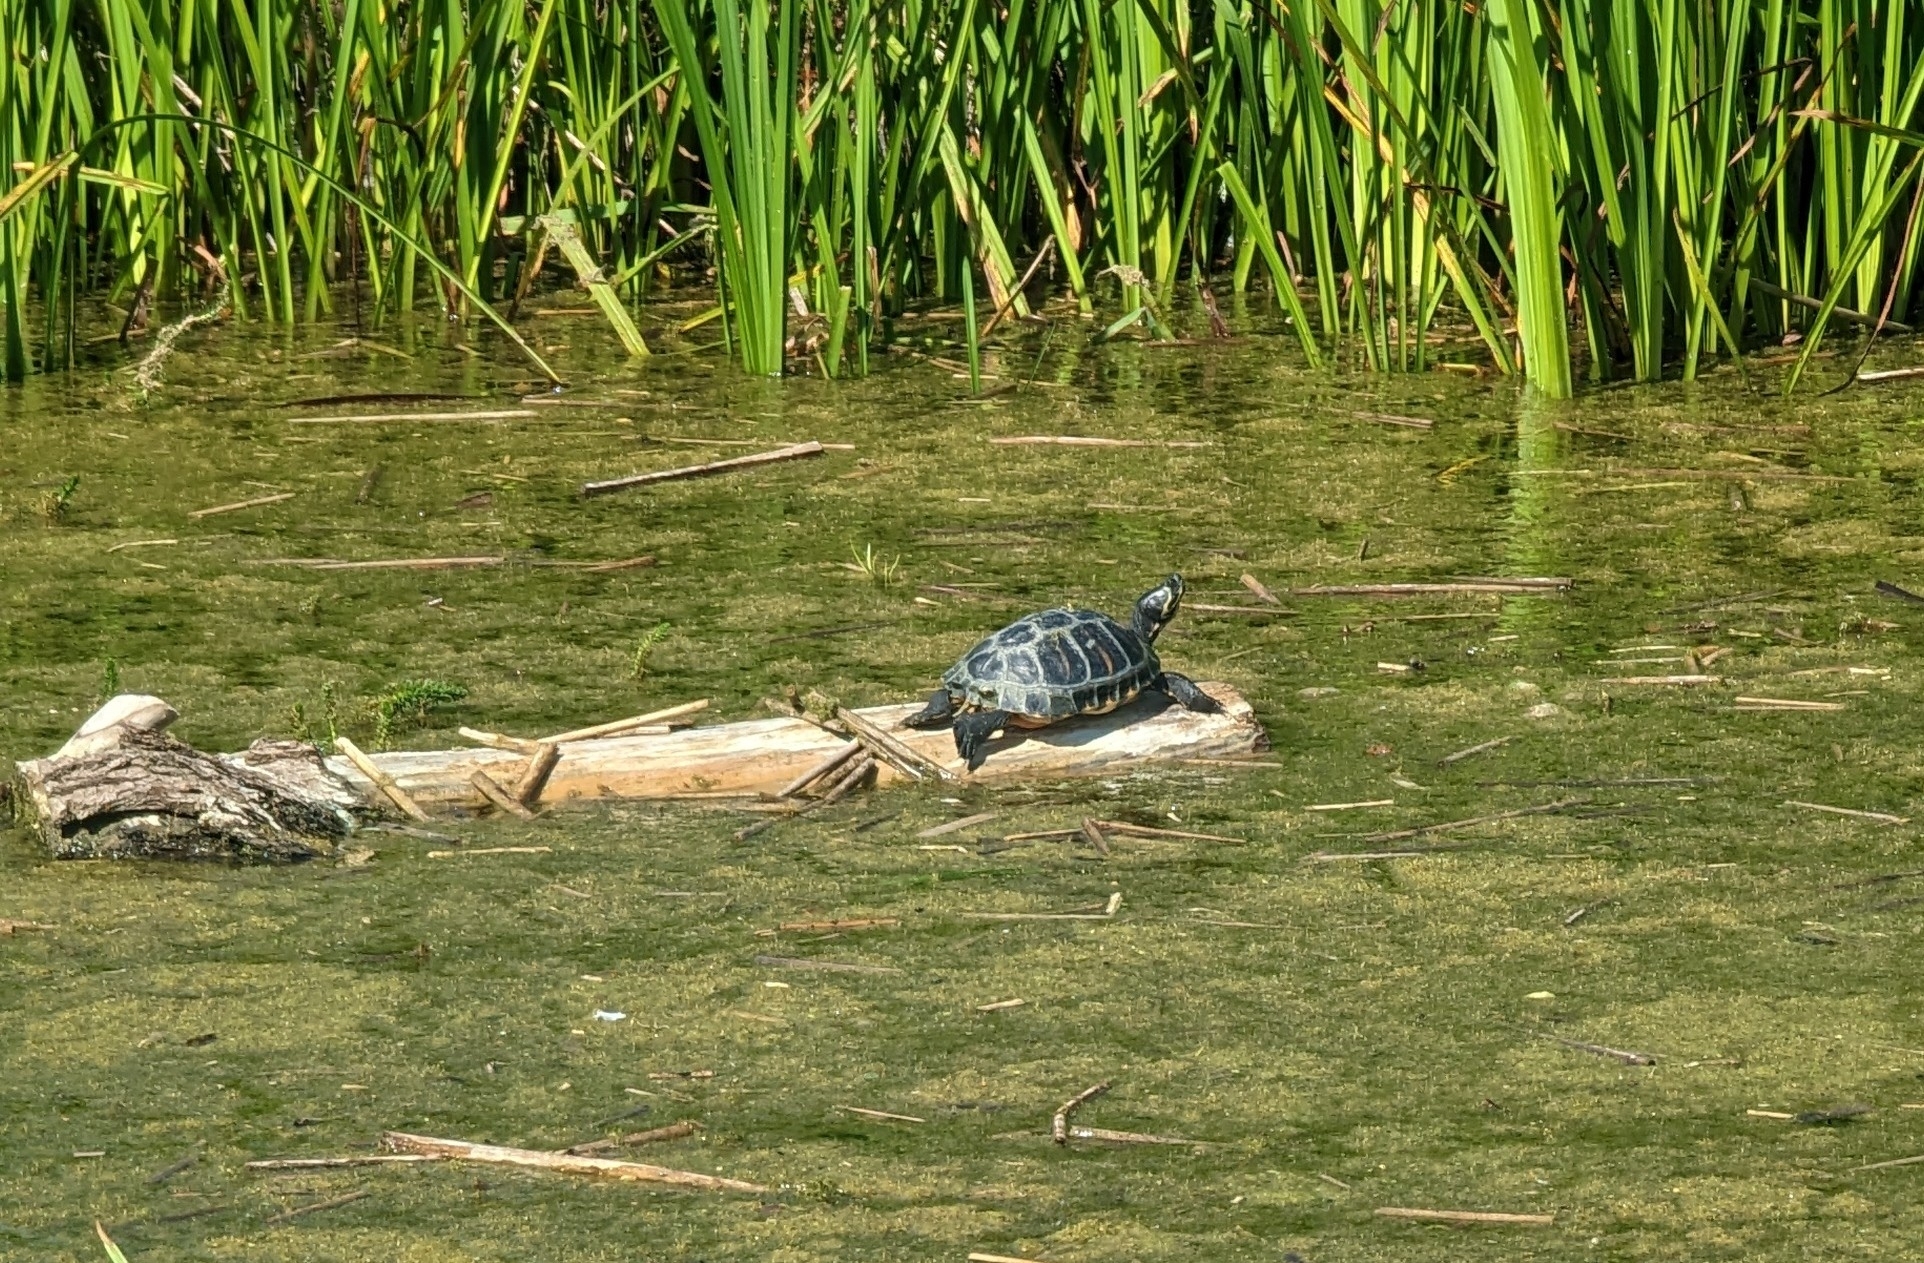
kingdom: Animalia
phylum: Chordata
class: Testudines
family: Emydidae
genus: Trachemys
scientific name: Trachemys scripta
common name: Slider
